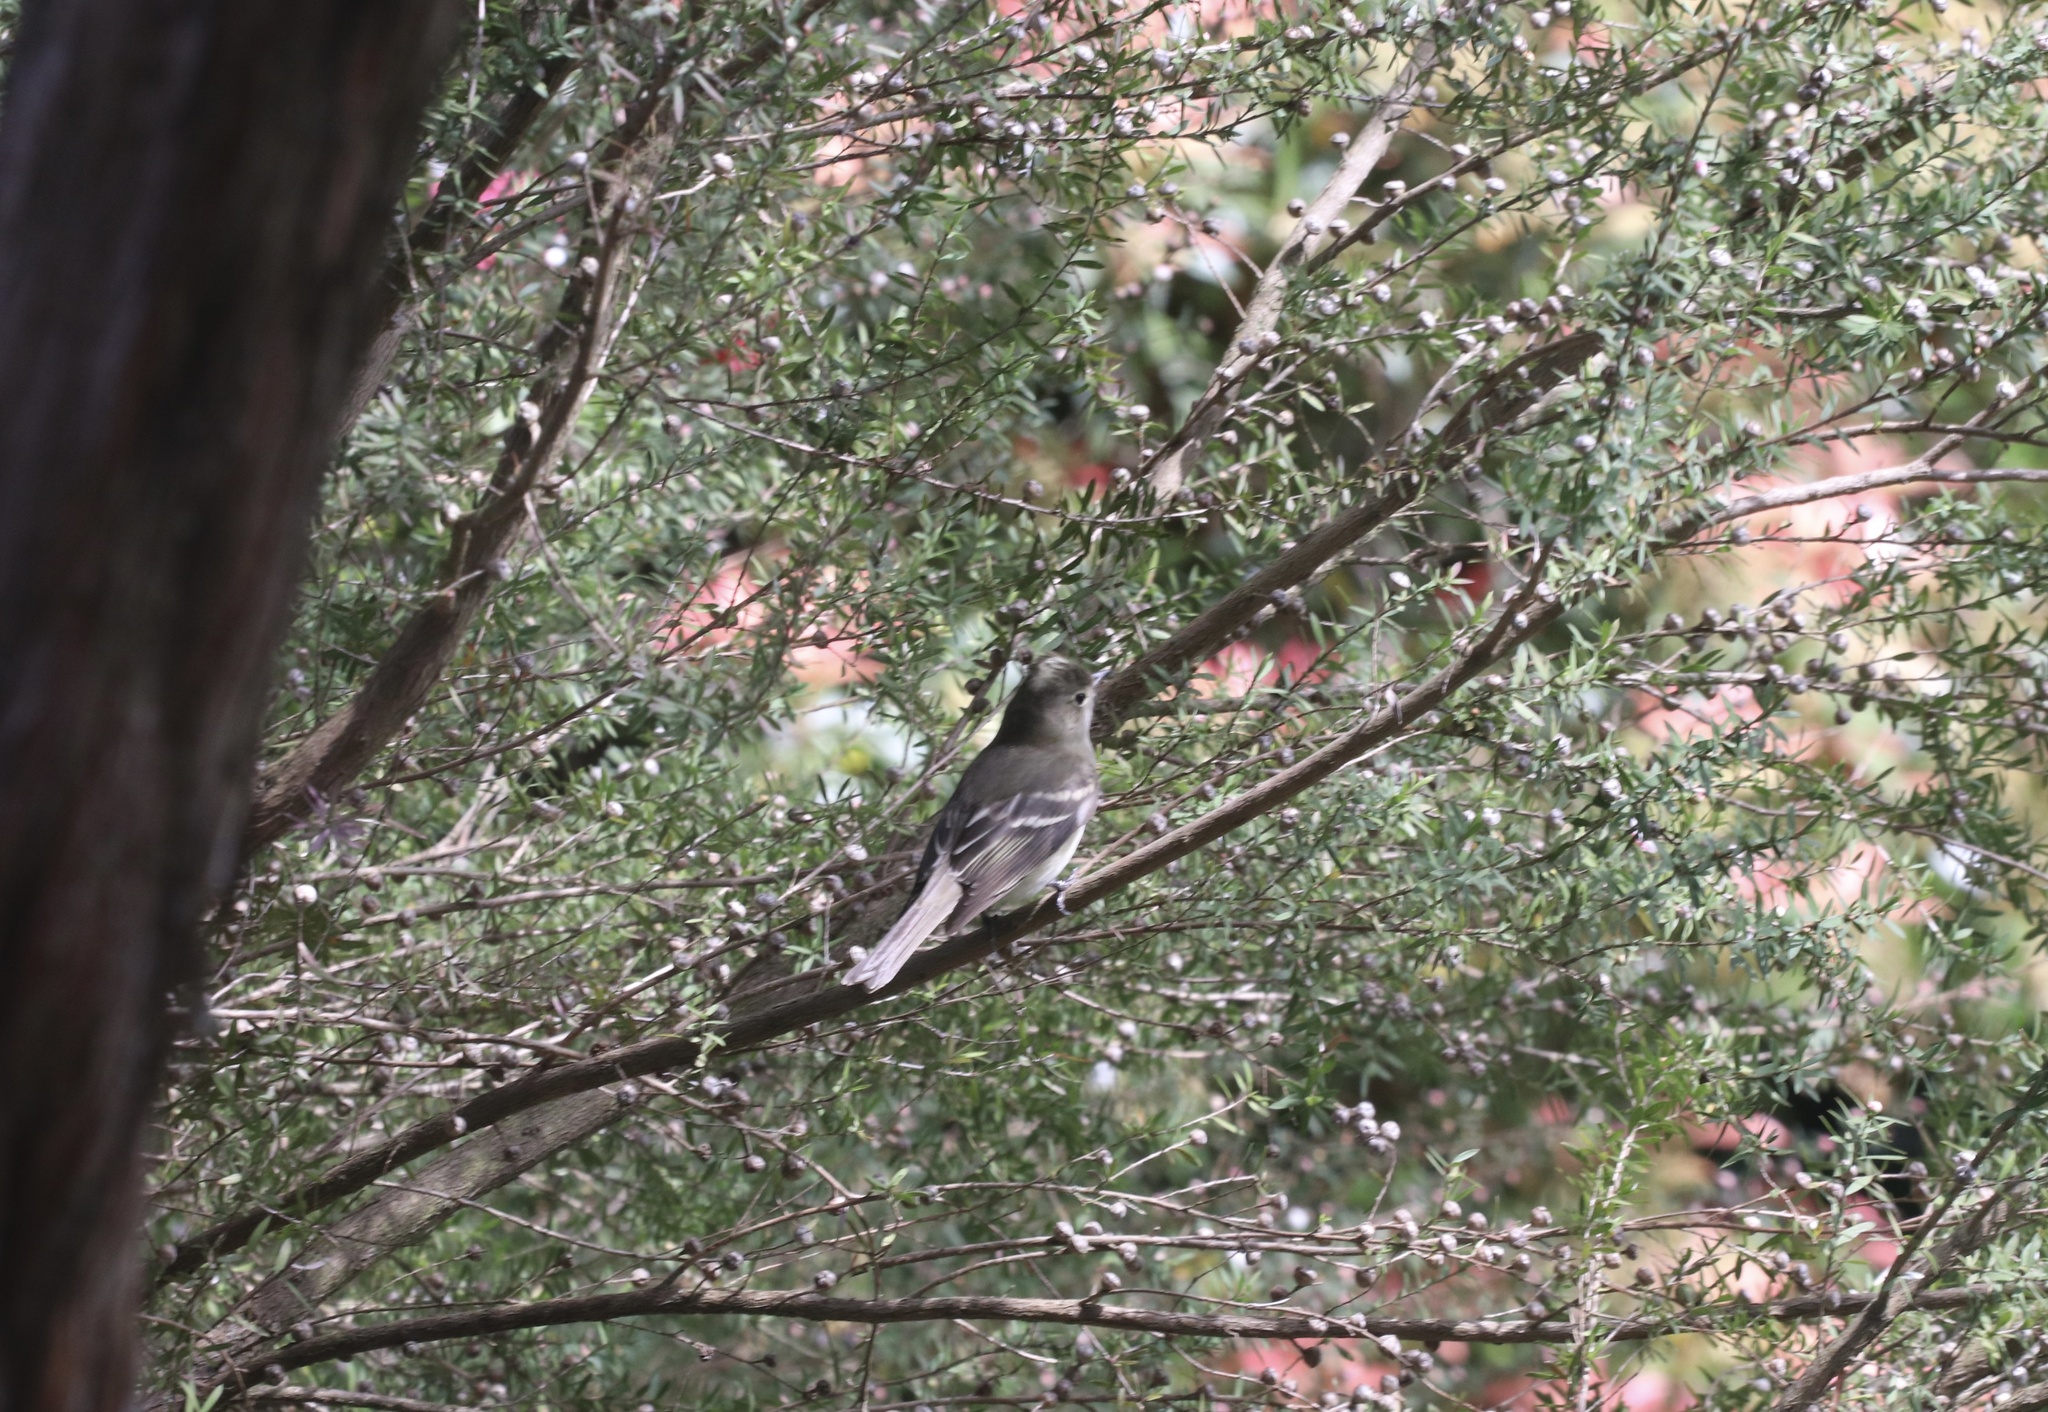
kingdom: Animalia
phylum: Chordata
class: Aves
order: Passeriformes
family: Tyrannidae
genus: Elaenia
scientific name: Elaenia albiceps
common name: White-crested elaenia
